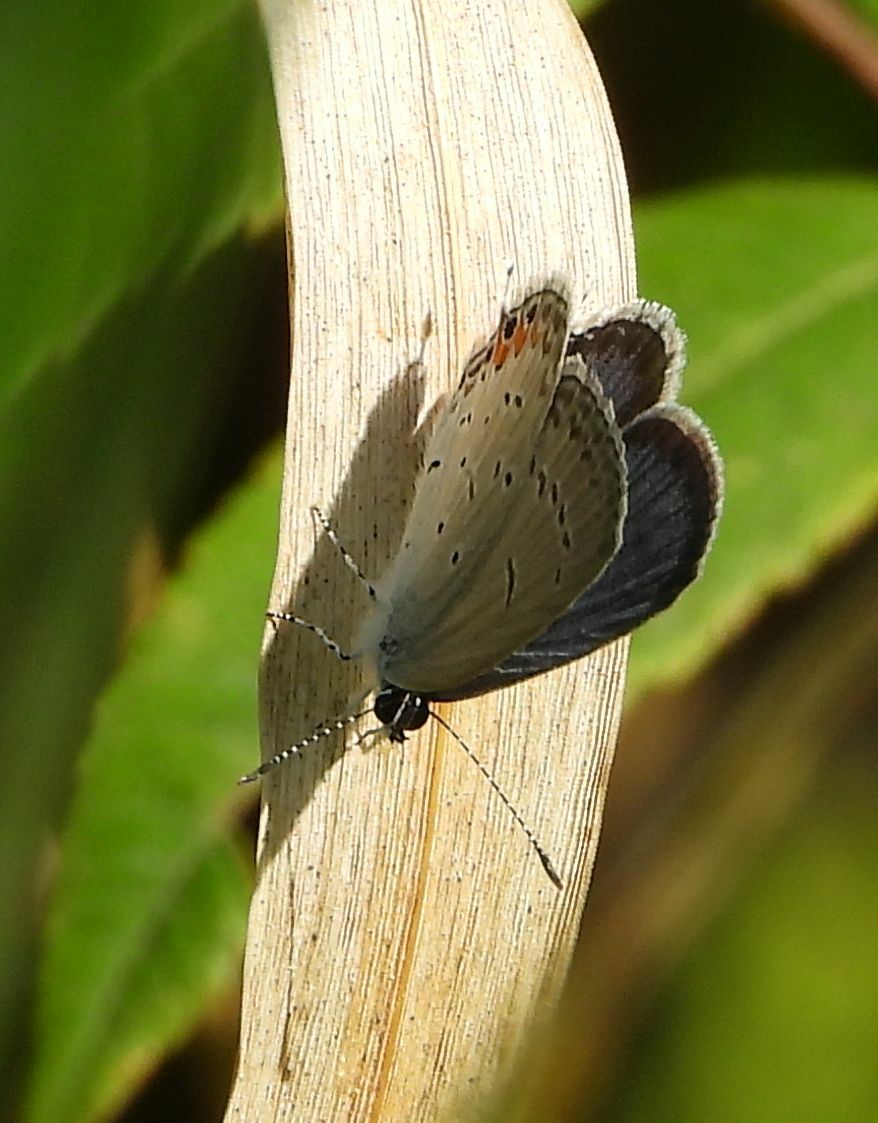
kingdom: Animalia
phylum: Arthropoda
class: Insecta
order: Lepidoptera
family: Lycaenidae
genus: Elkalyce
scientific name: Elkalyce comyntas
